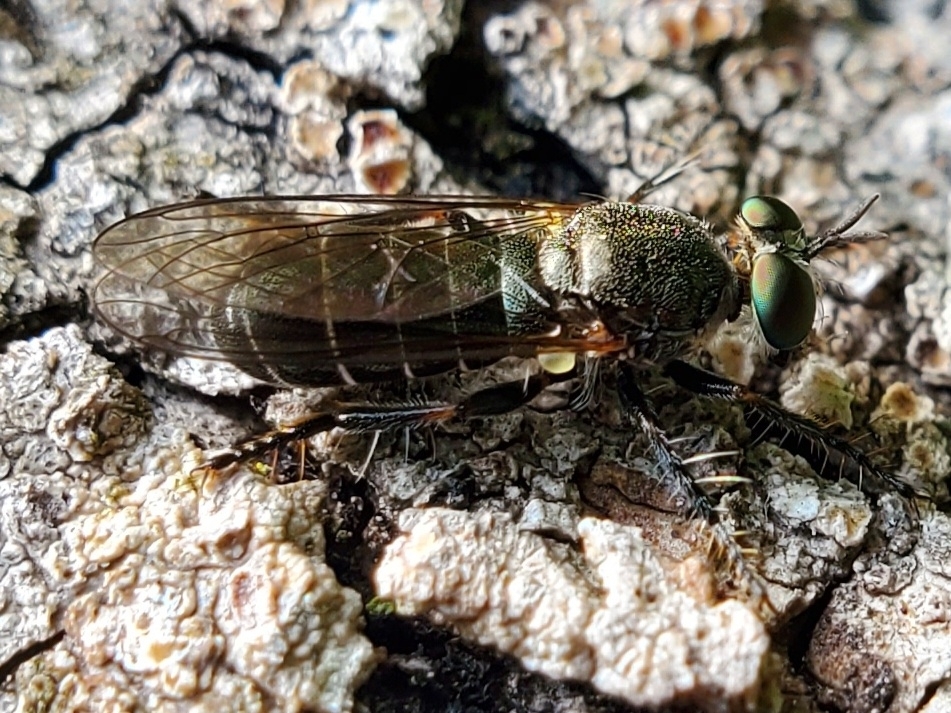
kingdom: Animalia
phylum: Arthropoda
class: Insecta
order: Diptera
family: Asilidae
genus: Atomosia
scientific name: Atomosia puella
